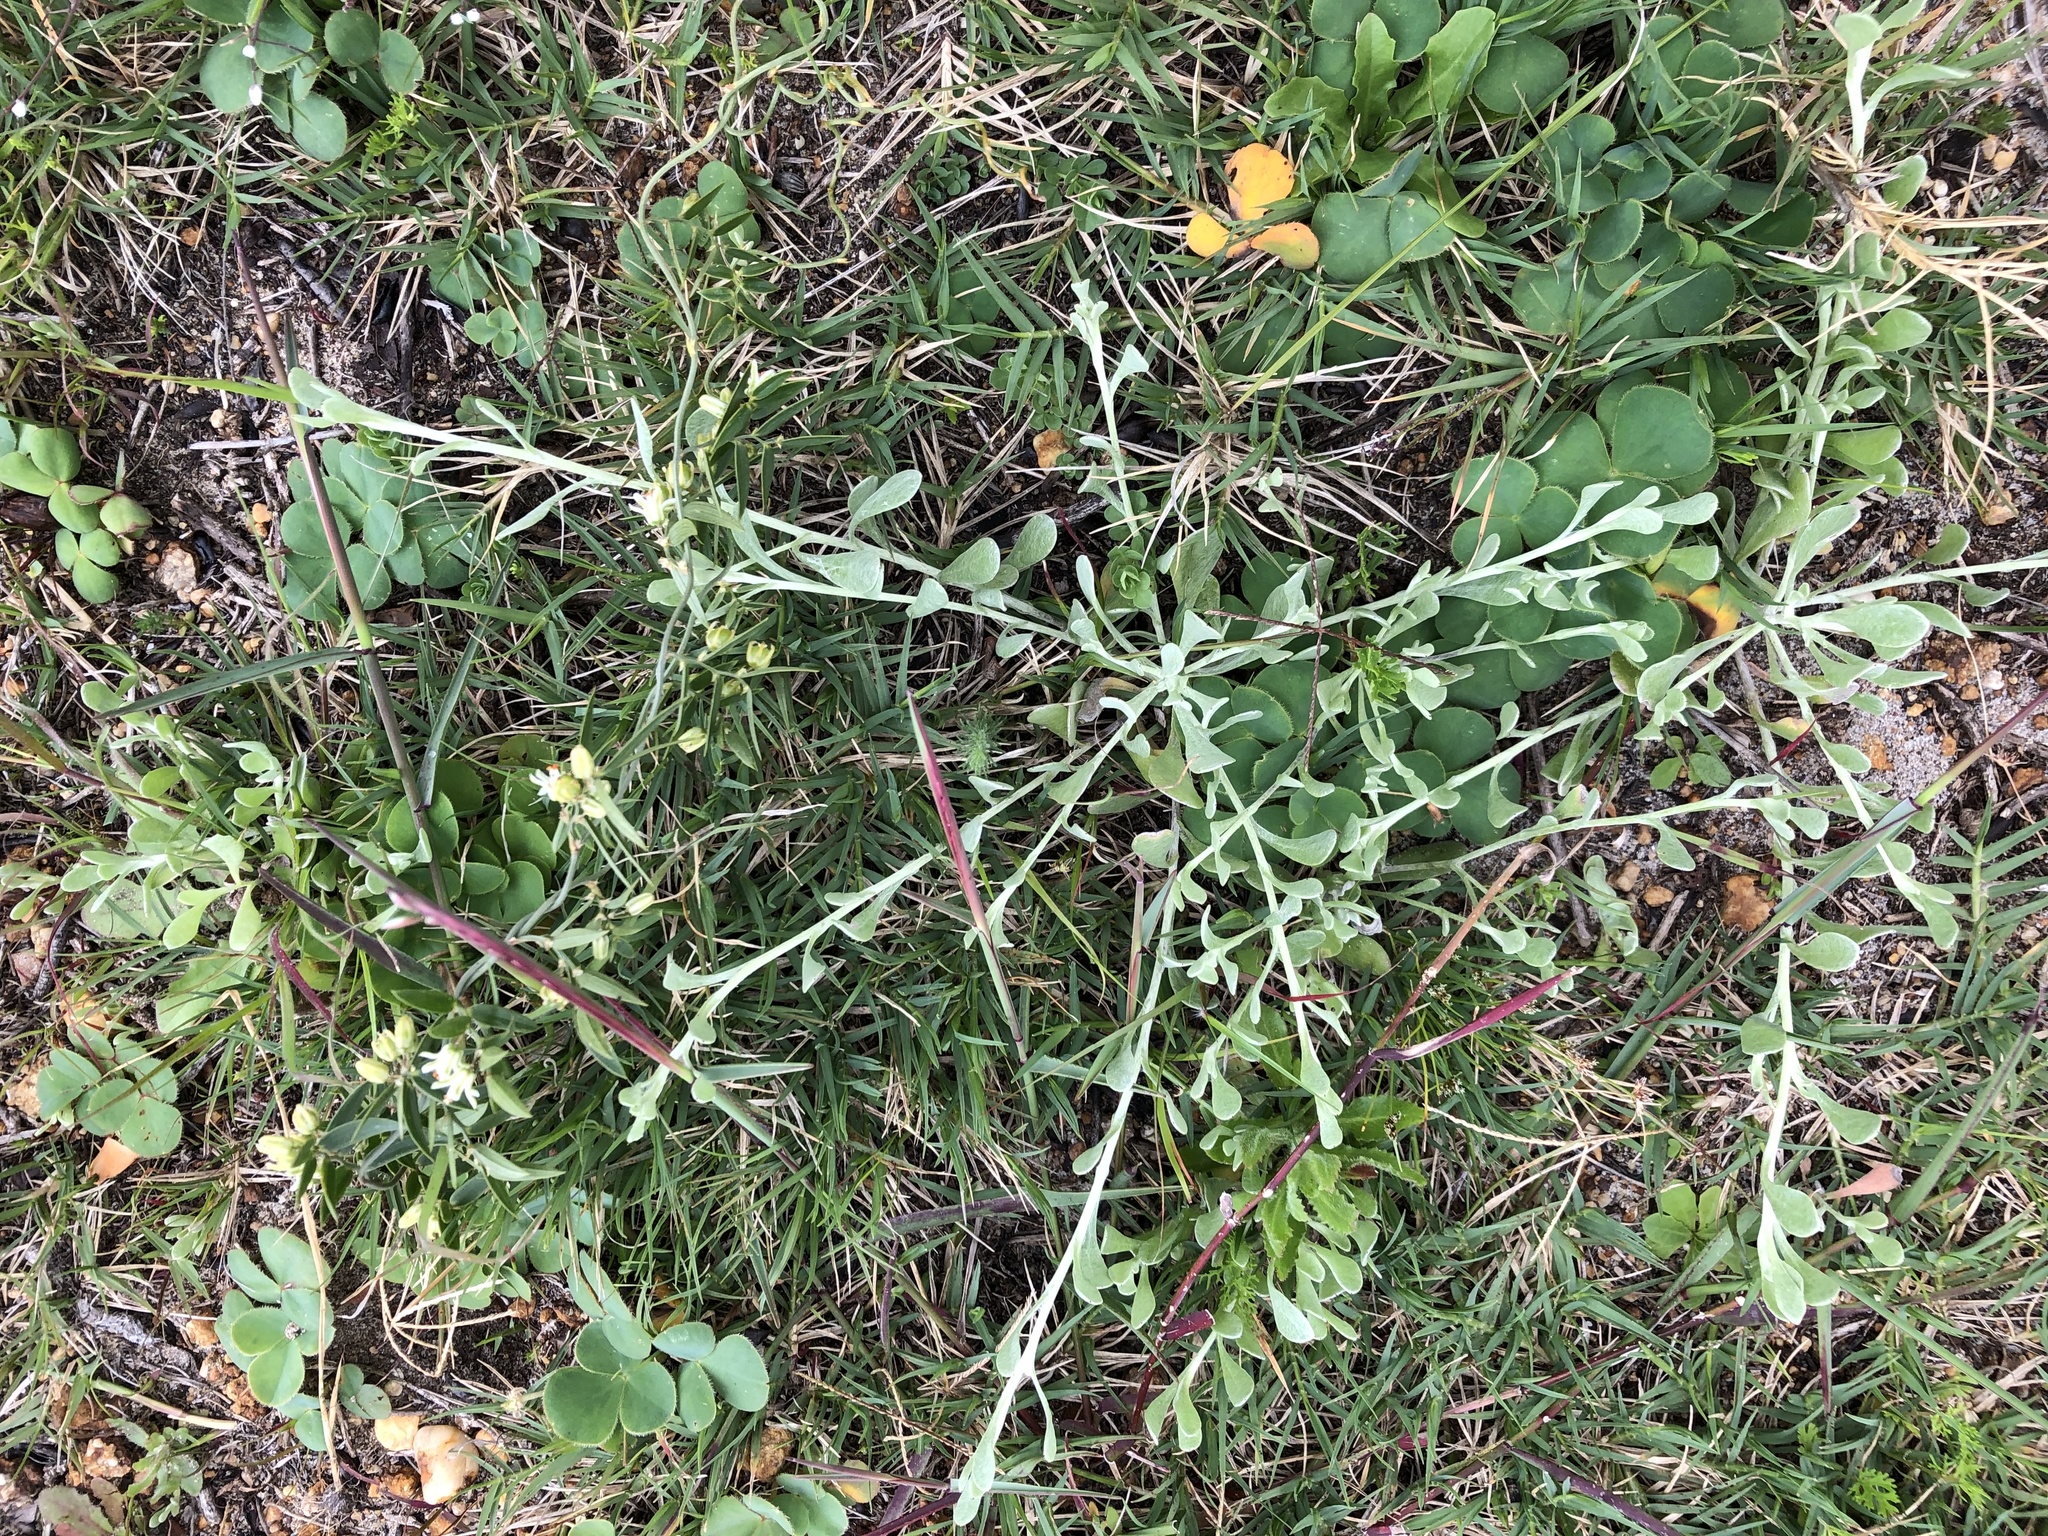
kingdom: Plantae
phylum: Tracheophyta
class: Liliopsida
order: Asparagales
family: Asparagaceae
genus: Asparagus
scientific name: Asparagus asparagoides
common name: African asparagus fern
